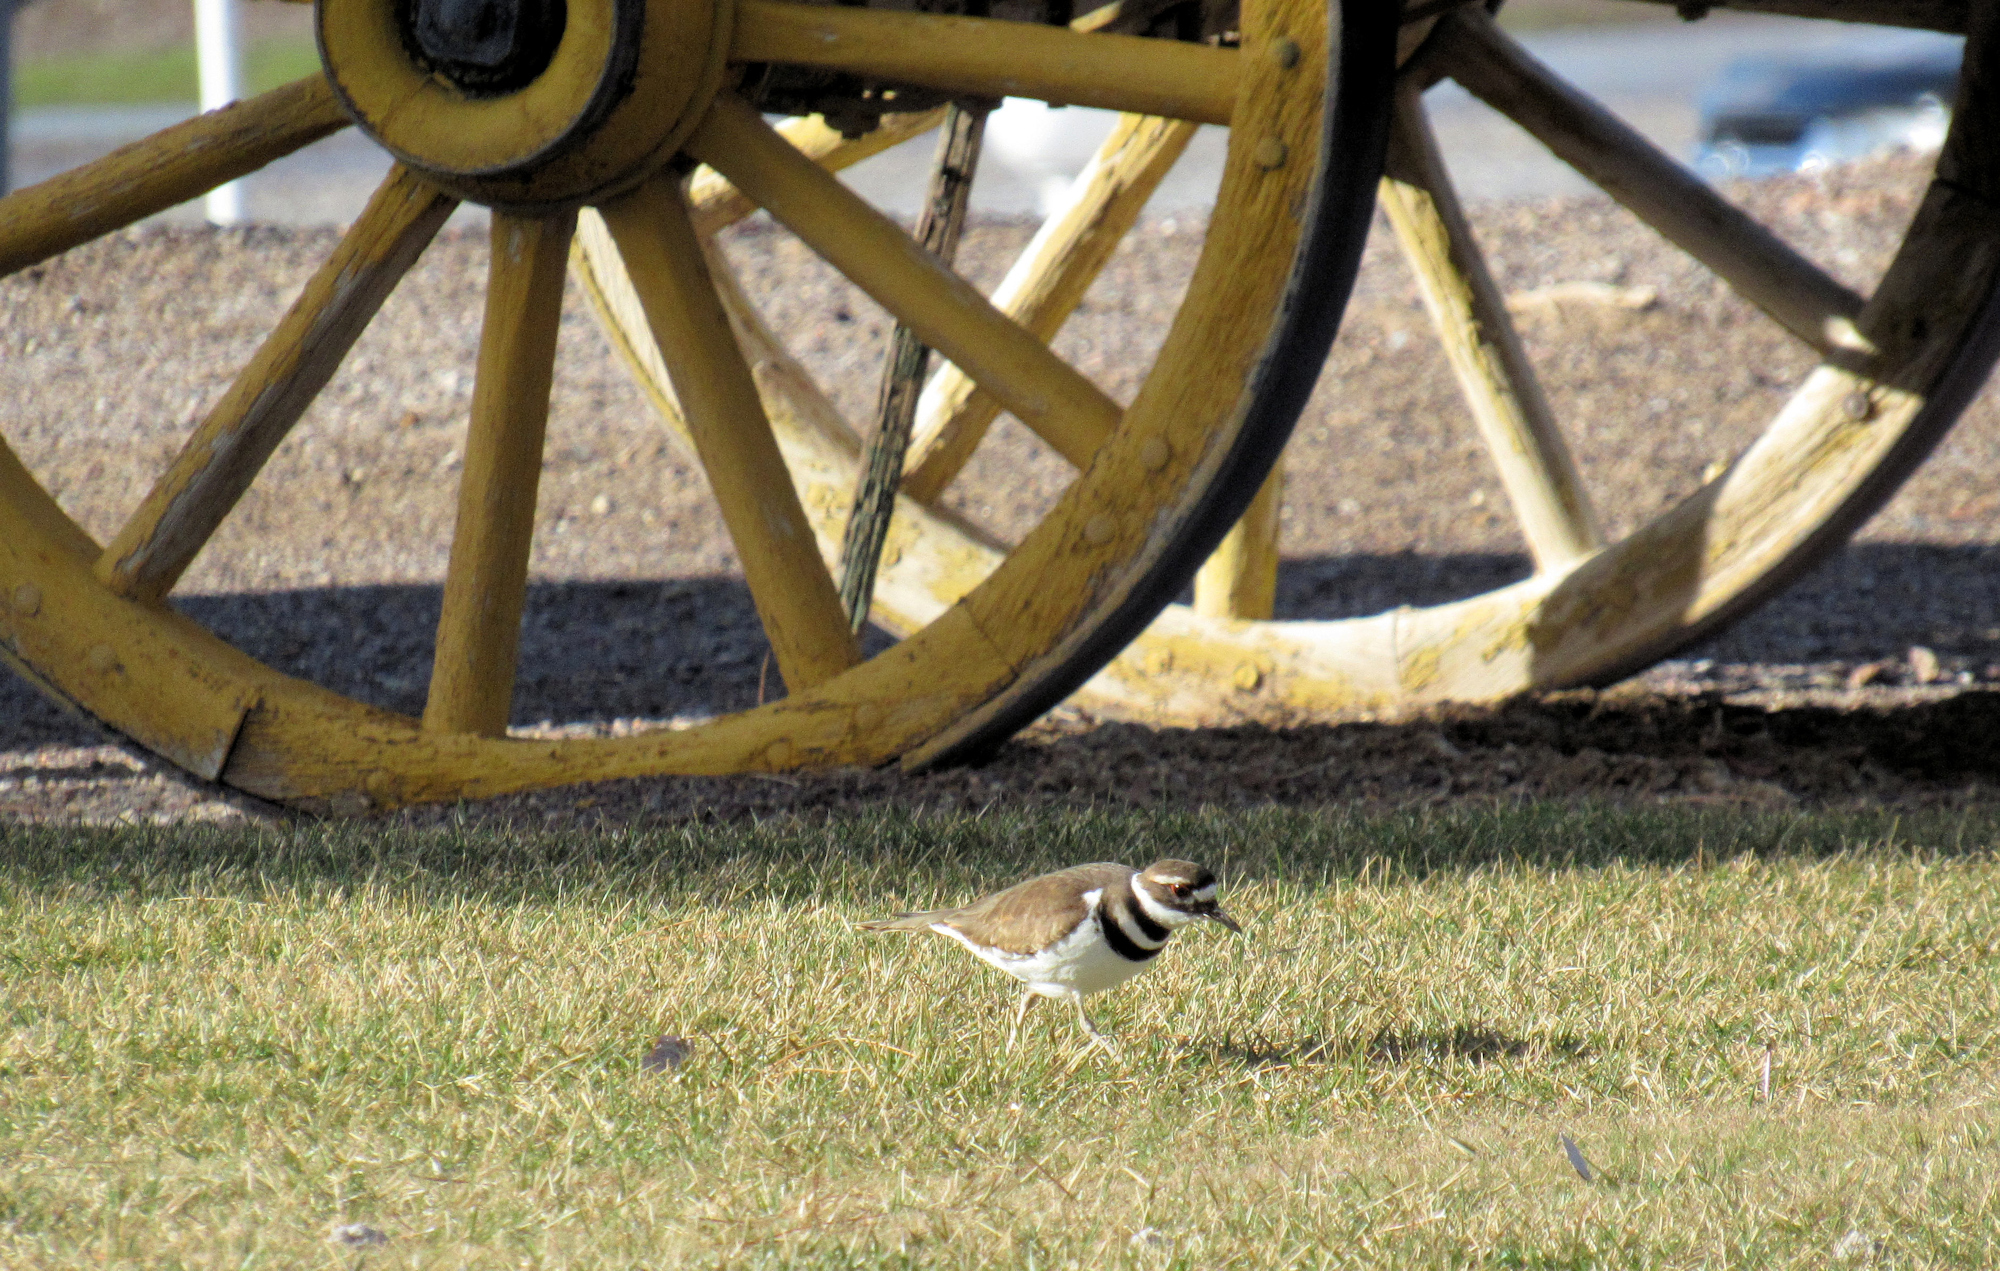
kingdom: Animalia
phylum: Chordata
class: Aves
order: Charadriiformes
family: Charadriidae
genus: Charadrius
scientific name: Charadrius vociferus
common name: Killdeer
